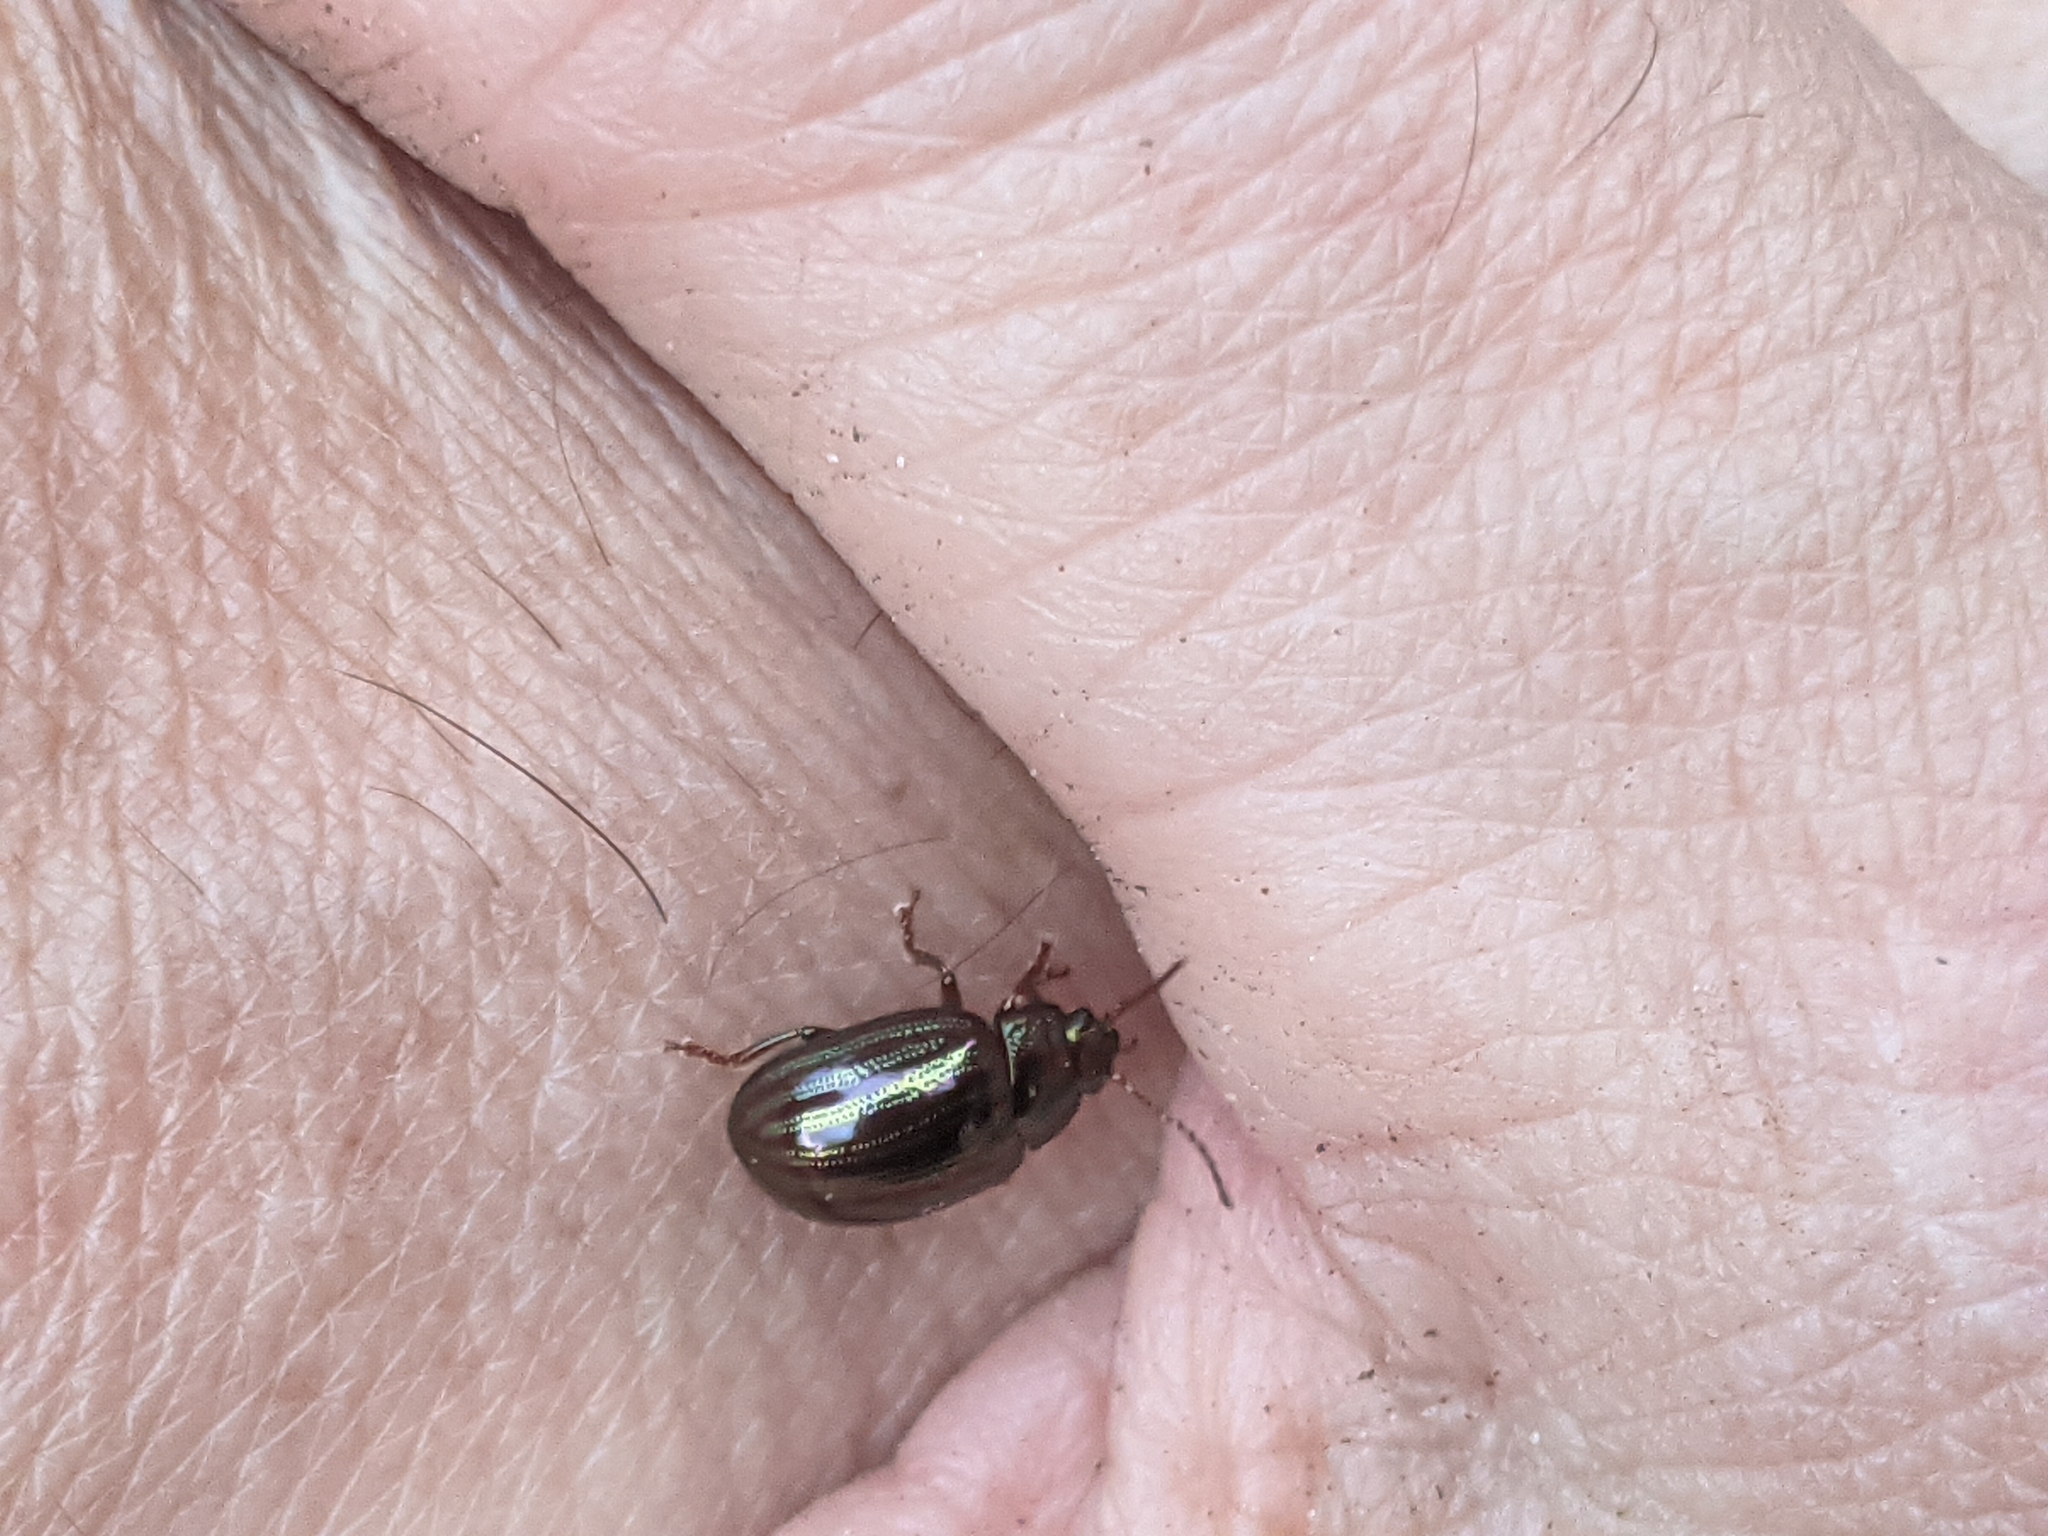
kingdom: Animalia
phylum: Arthropoda
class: Insecta
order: Coleoptera
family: Chrysomelidae
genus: Chrysolina
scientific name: Chrysolina americana
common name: Rosemary beetle
